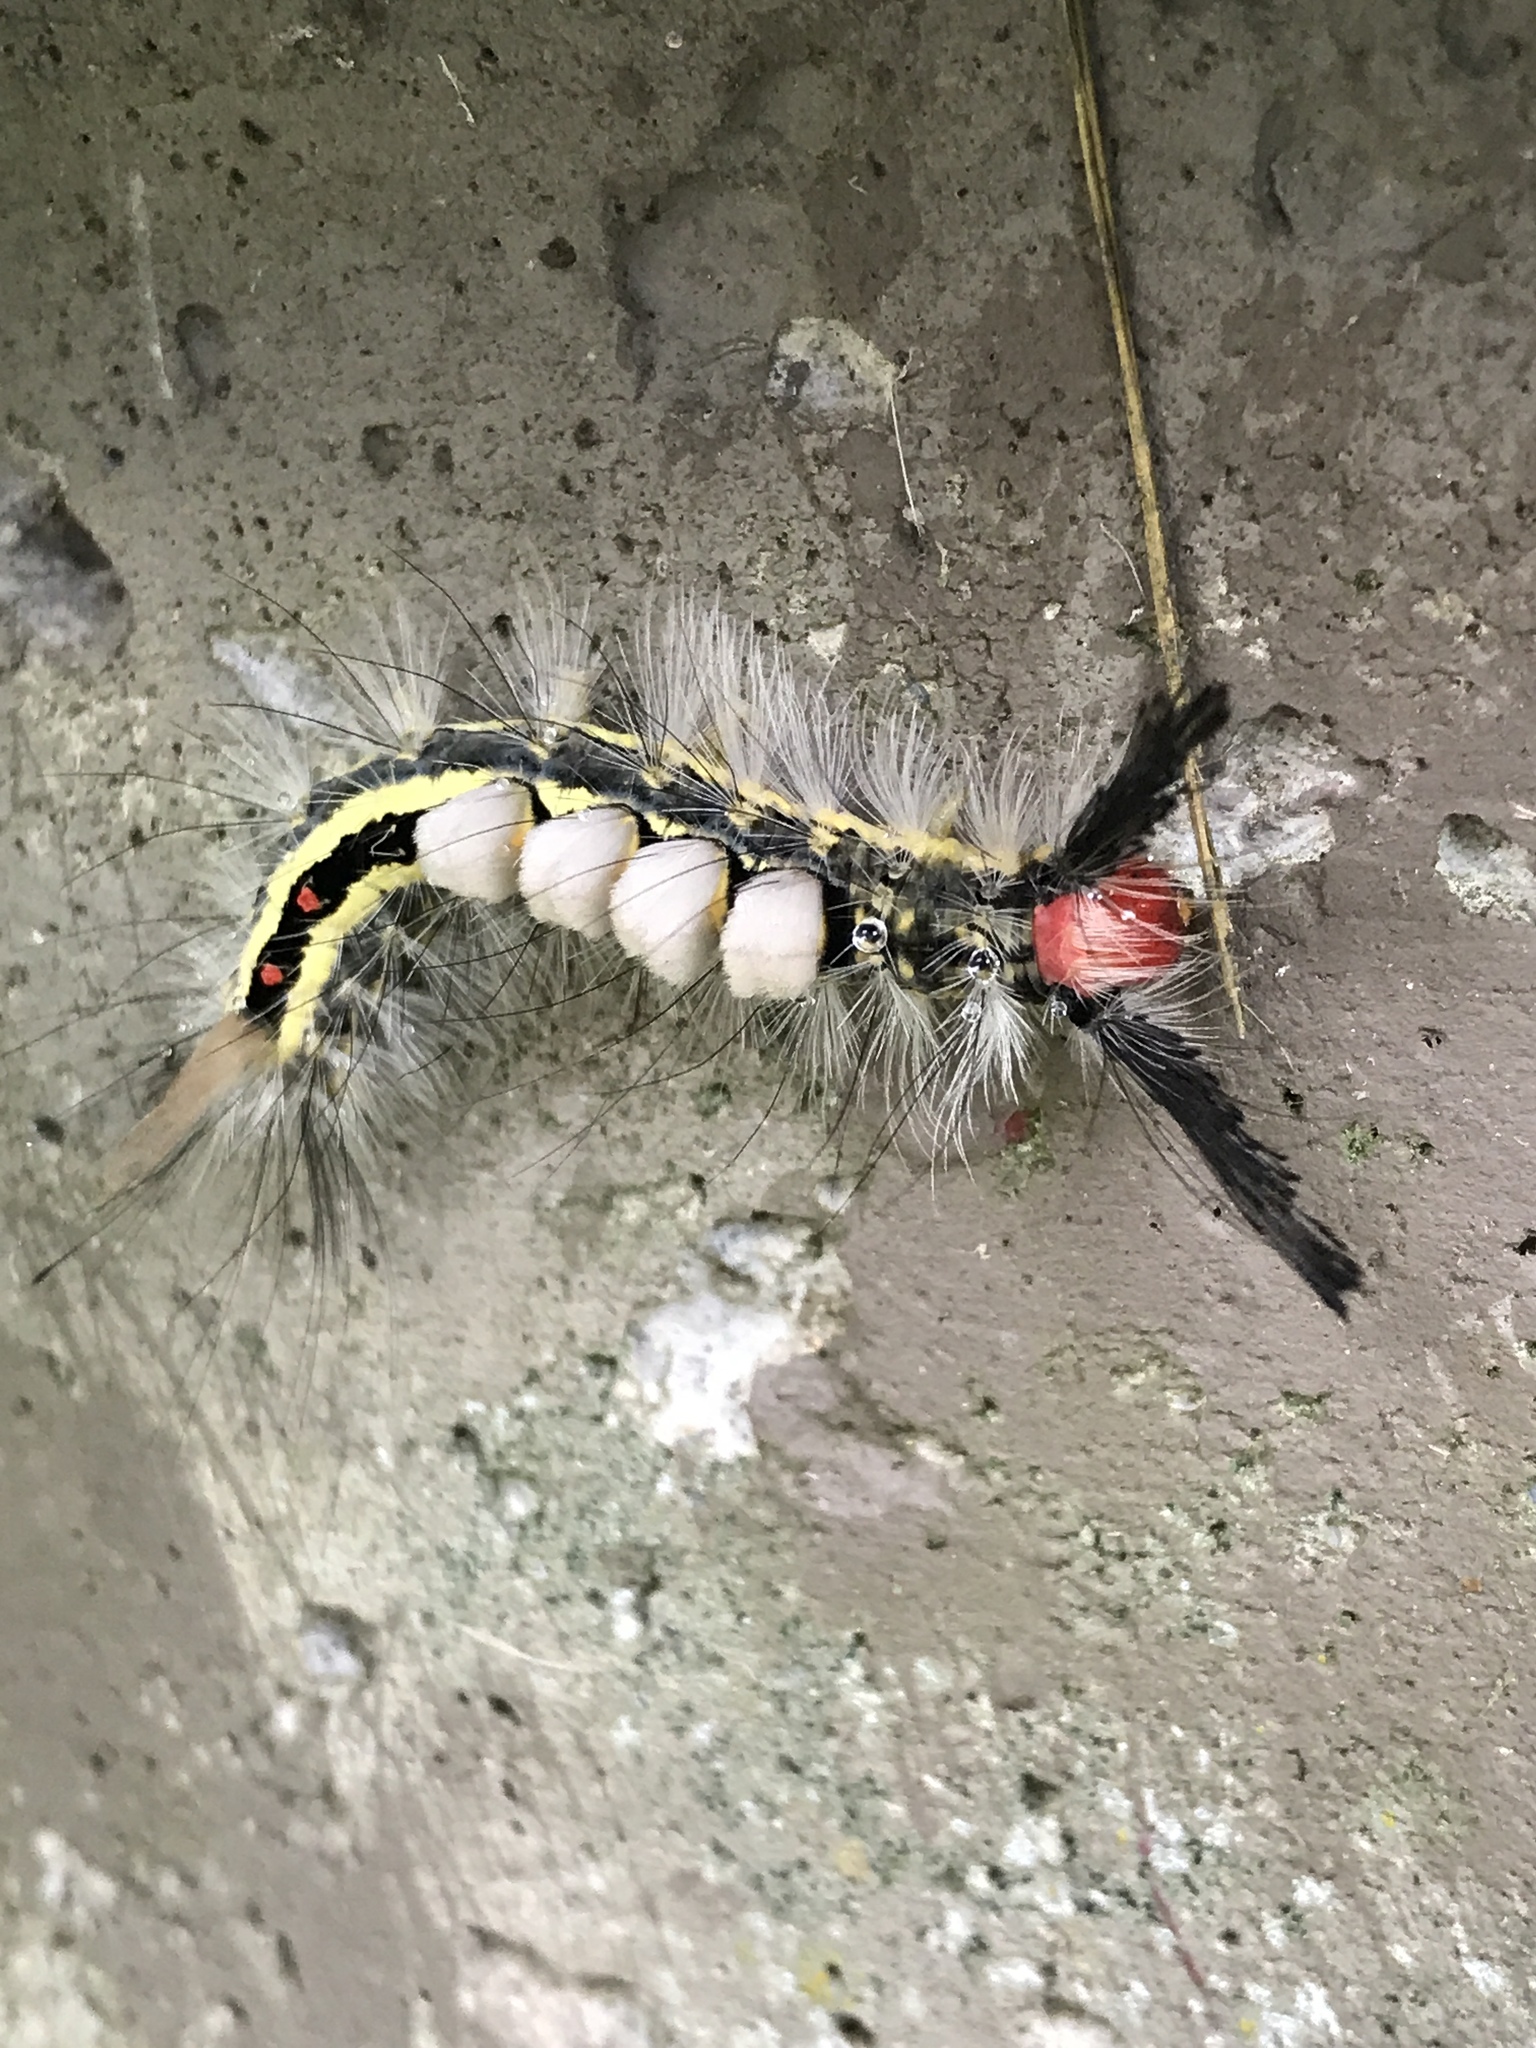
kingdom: Animalia
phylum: Arthropoda
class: Insecta
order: Lepidoptera
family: Erebidae
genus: Orgyia
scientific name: Orgyia leucostigma
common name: White-marked tussock moth
